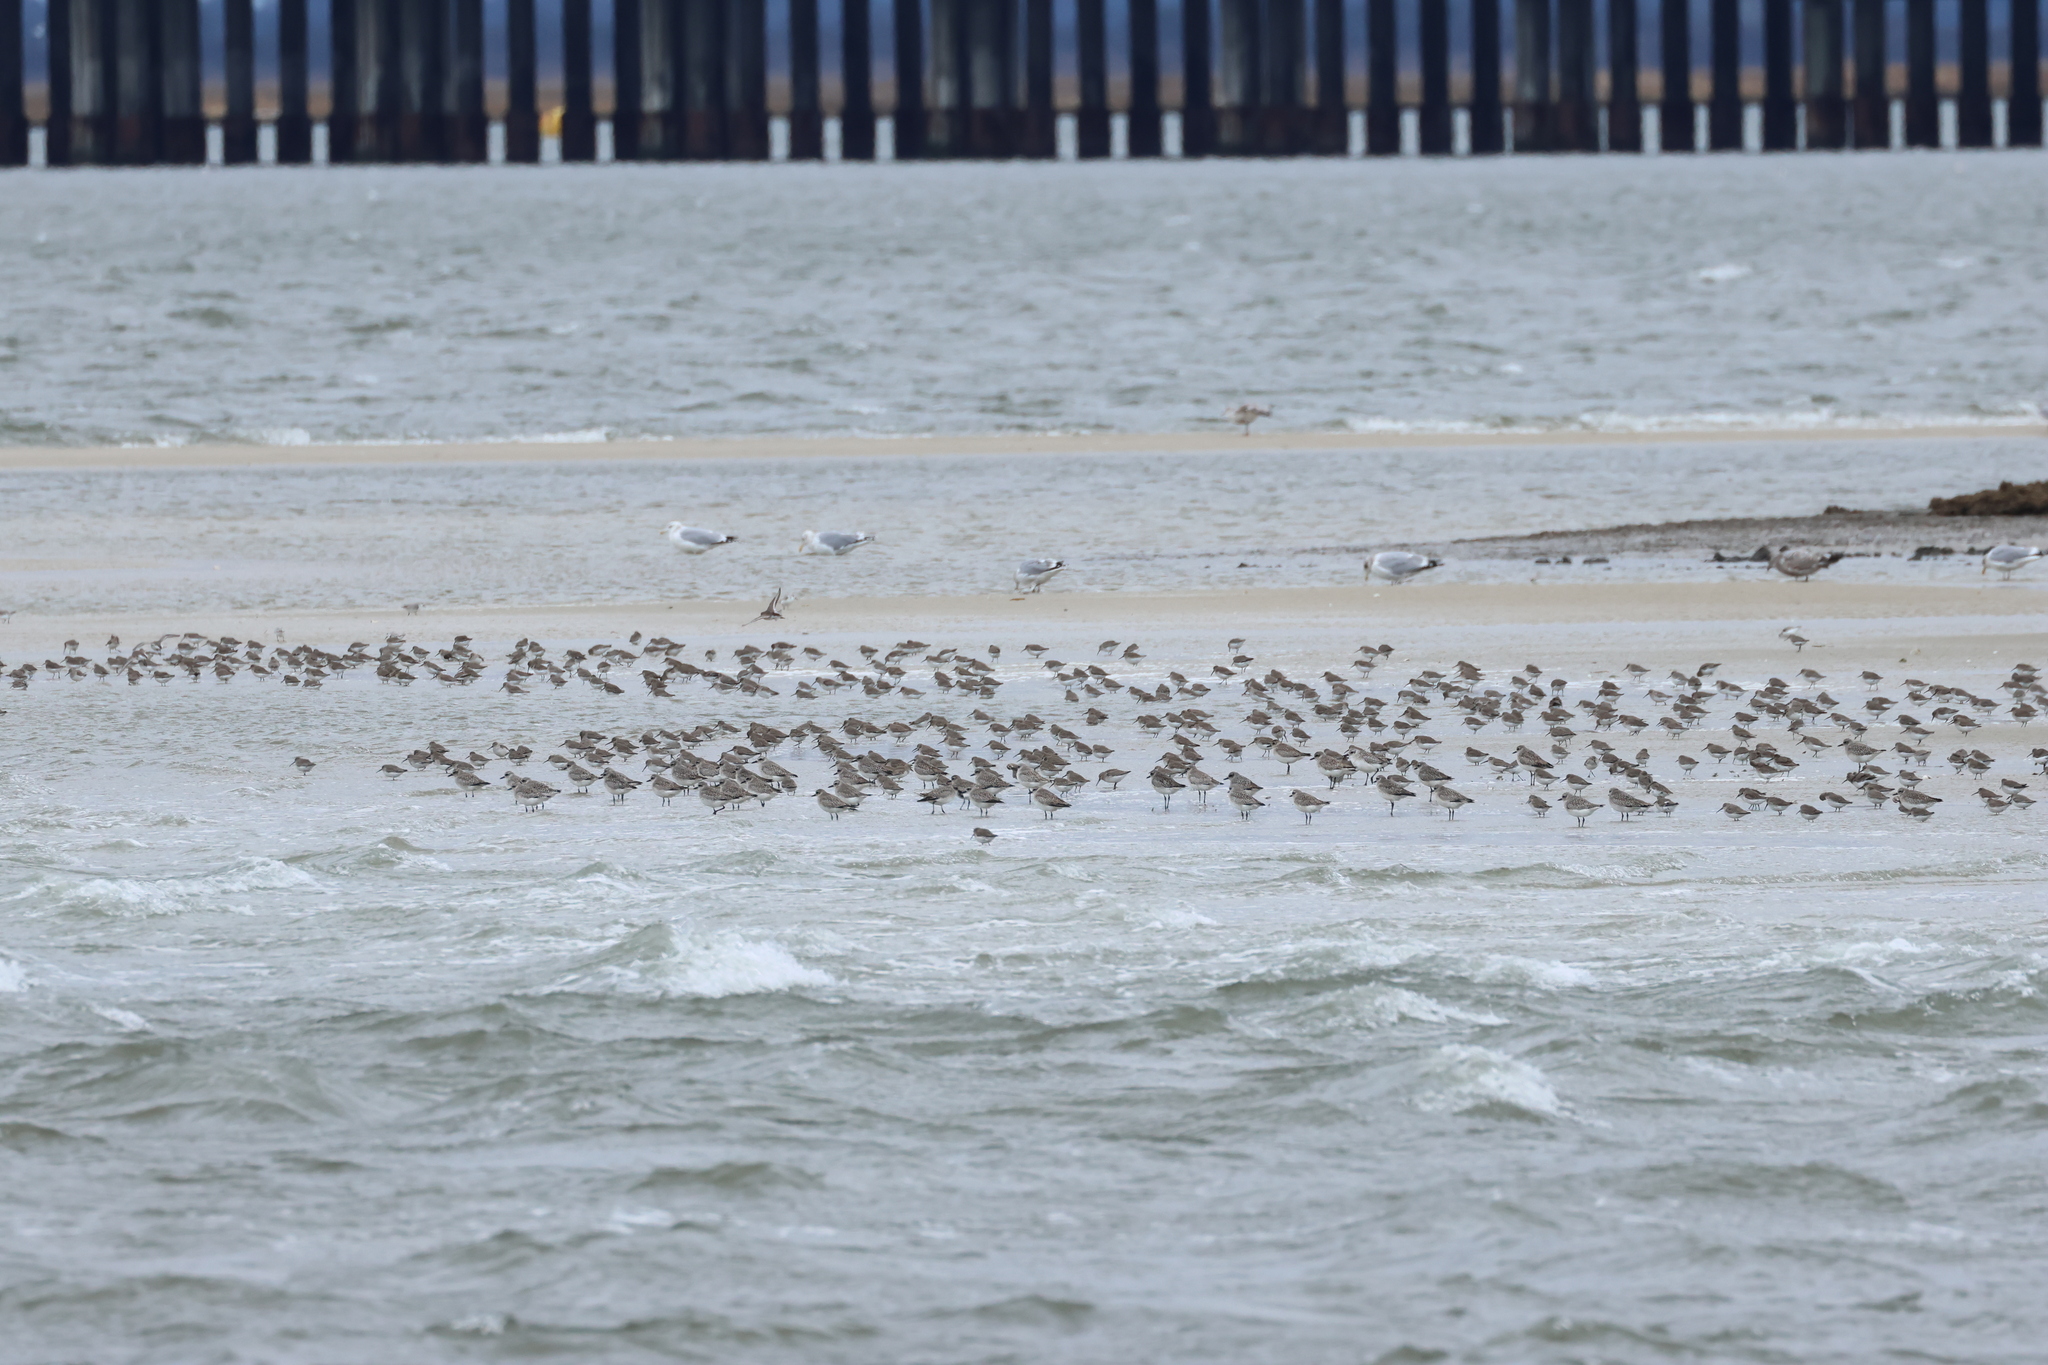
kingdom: Animalia
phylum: Chordata
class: Aves
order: Charadriiformes
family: Scolopacidae
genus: Calidris
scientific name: Calidris alpina
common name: Dunlin
